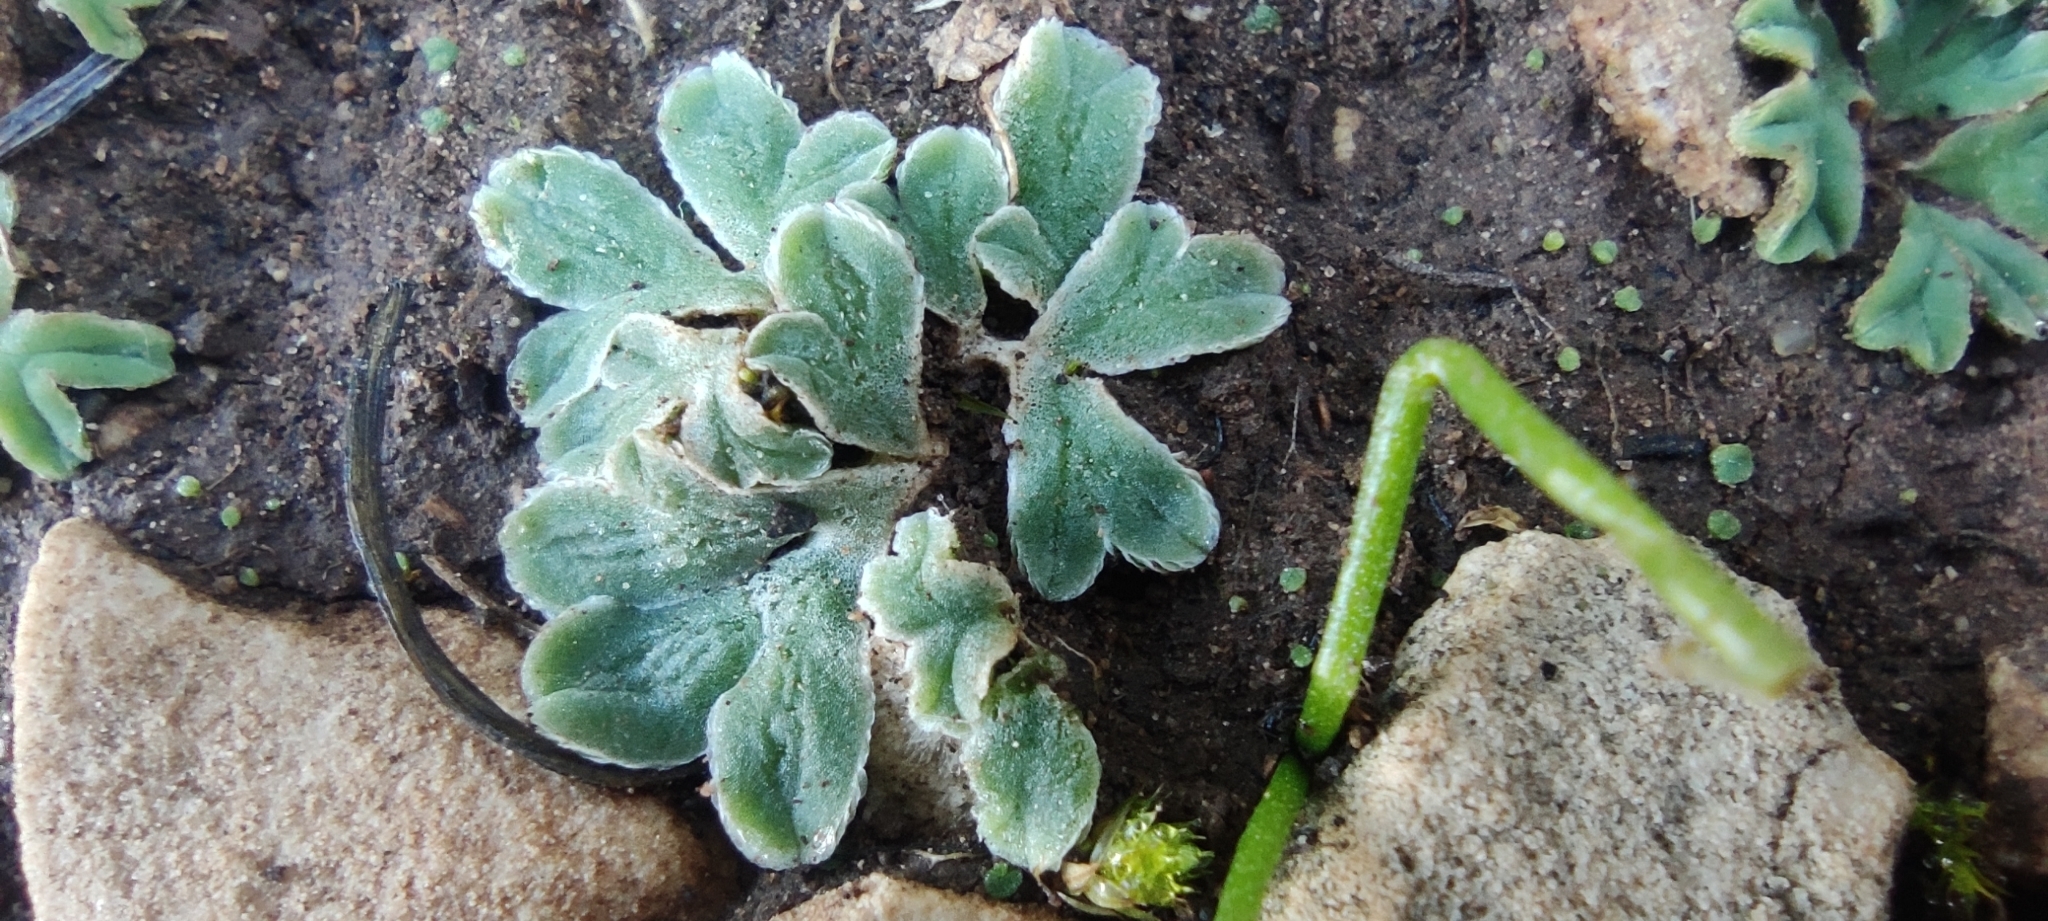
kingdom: Plantae
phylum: Marchantiophyta
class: Marchantiopsida
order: Marchantiales
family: Ricciaceae
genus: Riccia
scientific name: Riccia lamellosa
